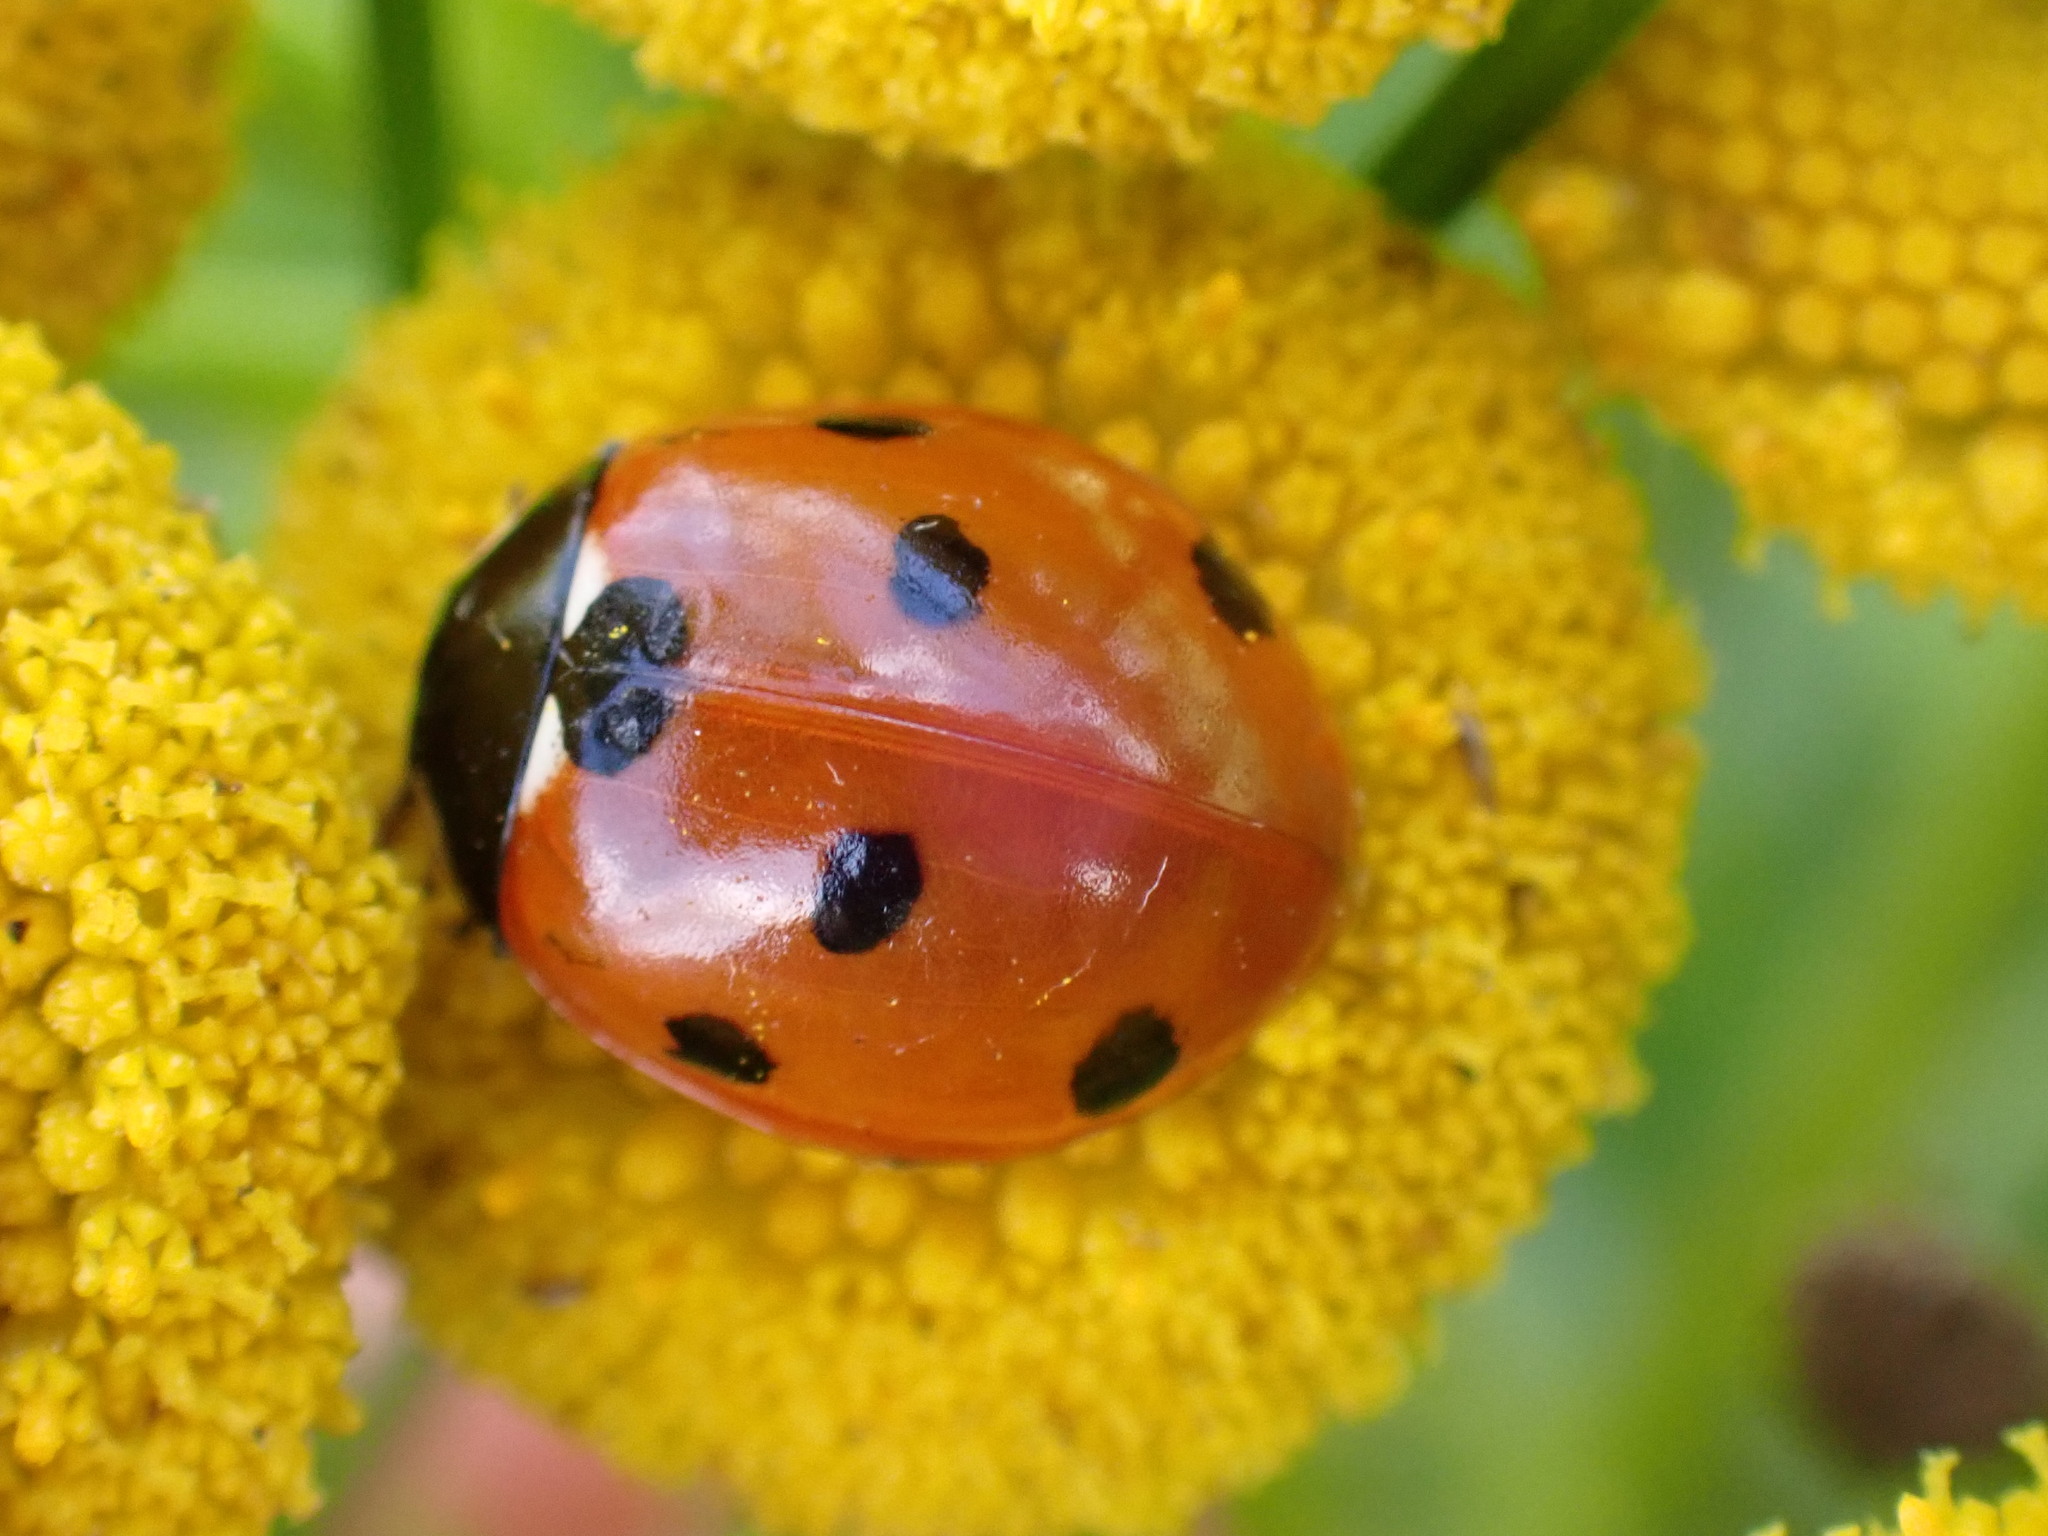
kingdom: Animalia
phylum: Arthropoda
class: Insecta
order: Coleoptera
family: Coccinellidae
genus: Coccinella
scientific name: Coccinella septempunctata
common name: Sevenspotted lady beetle
